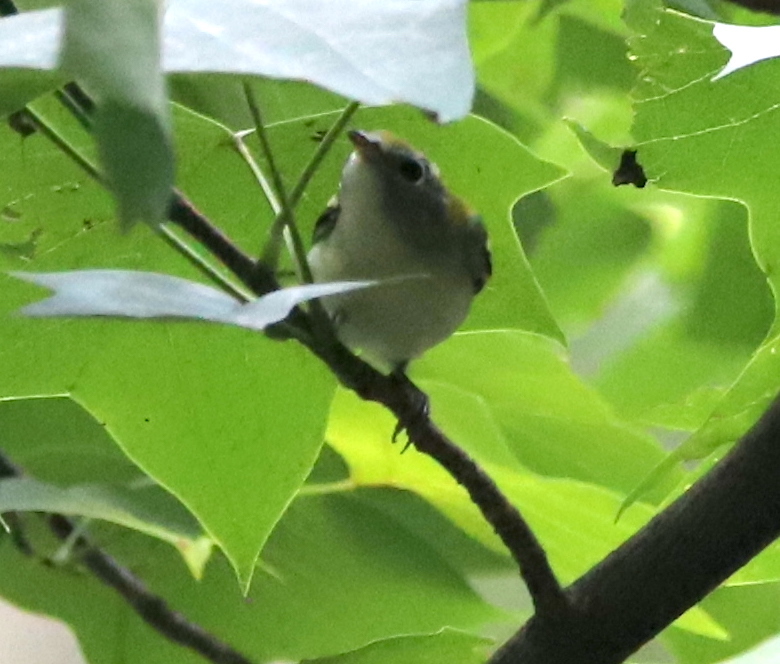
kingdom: Animalia
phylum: Chordata
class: Aves
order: Passeriformes
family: Parulidae
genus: Setophaga
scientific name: Setophaga pensylvanica
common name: Chestnut-sided warbler
